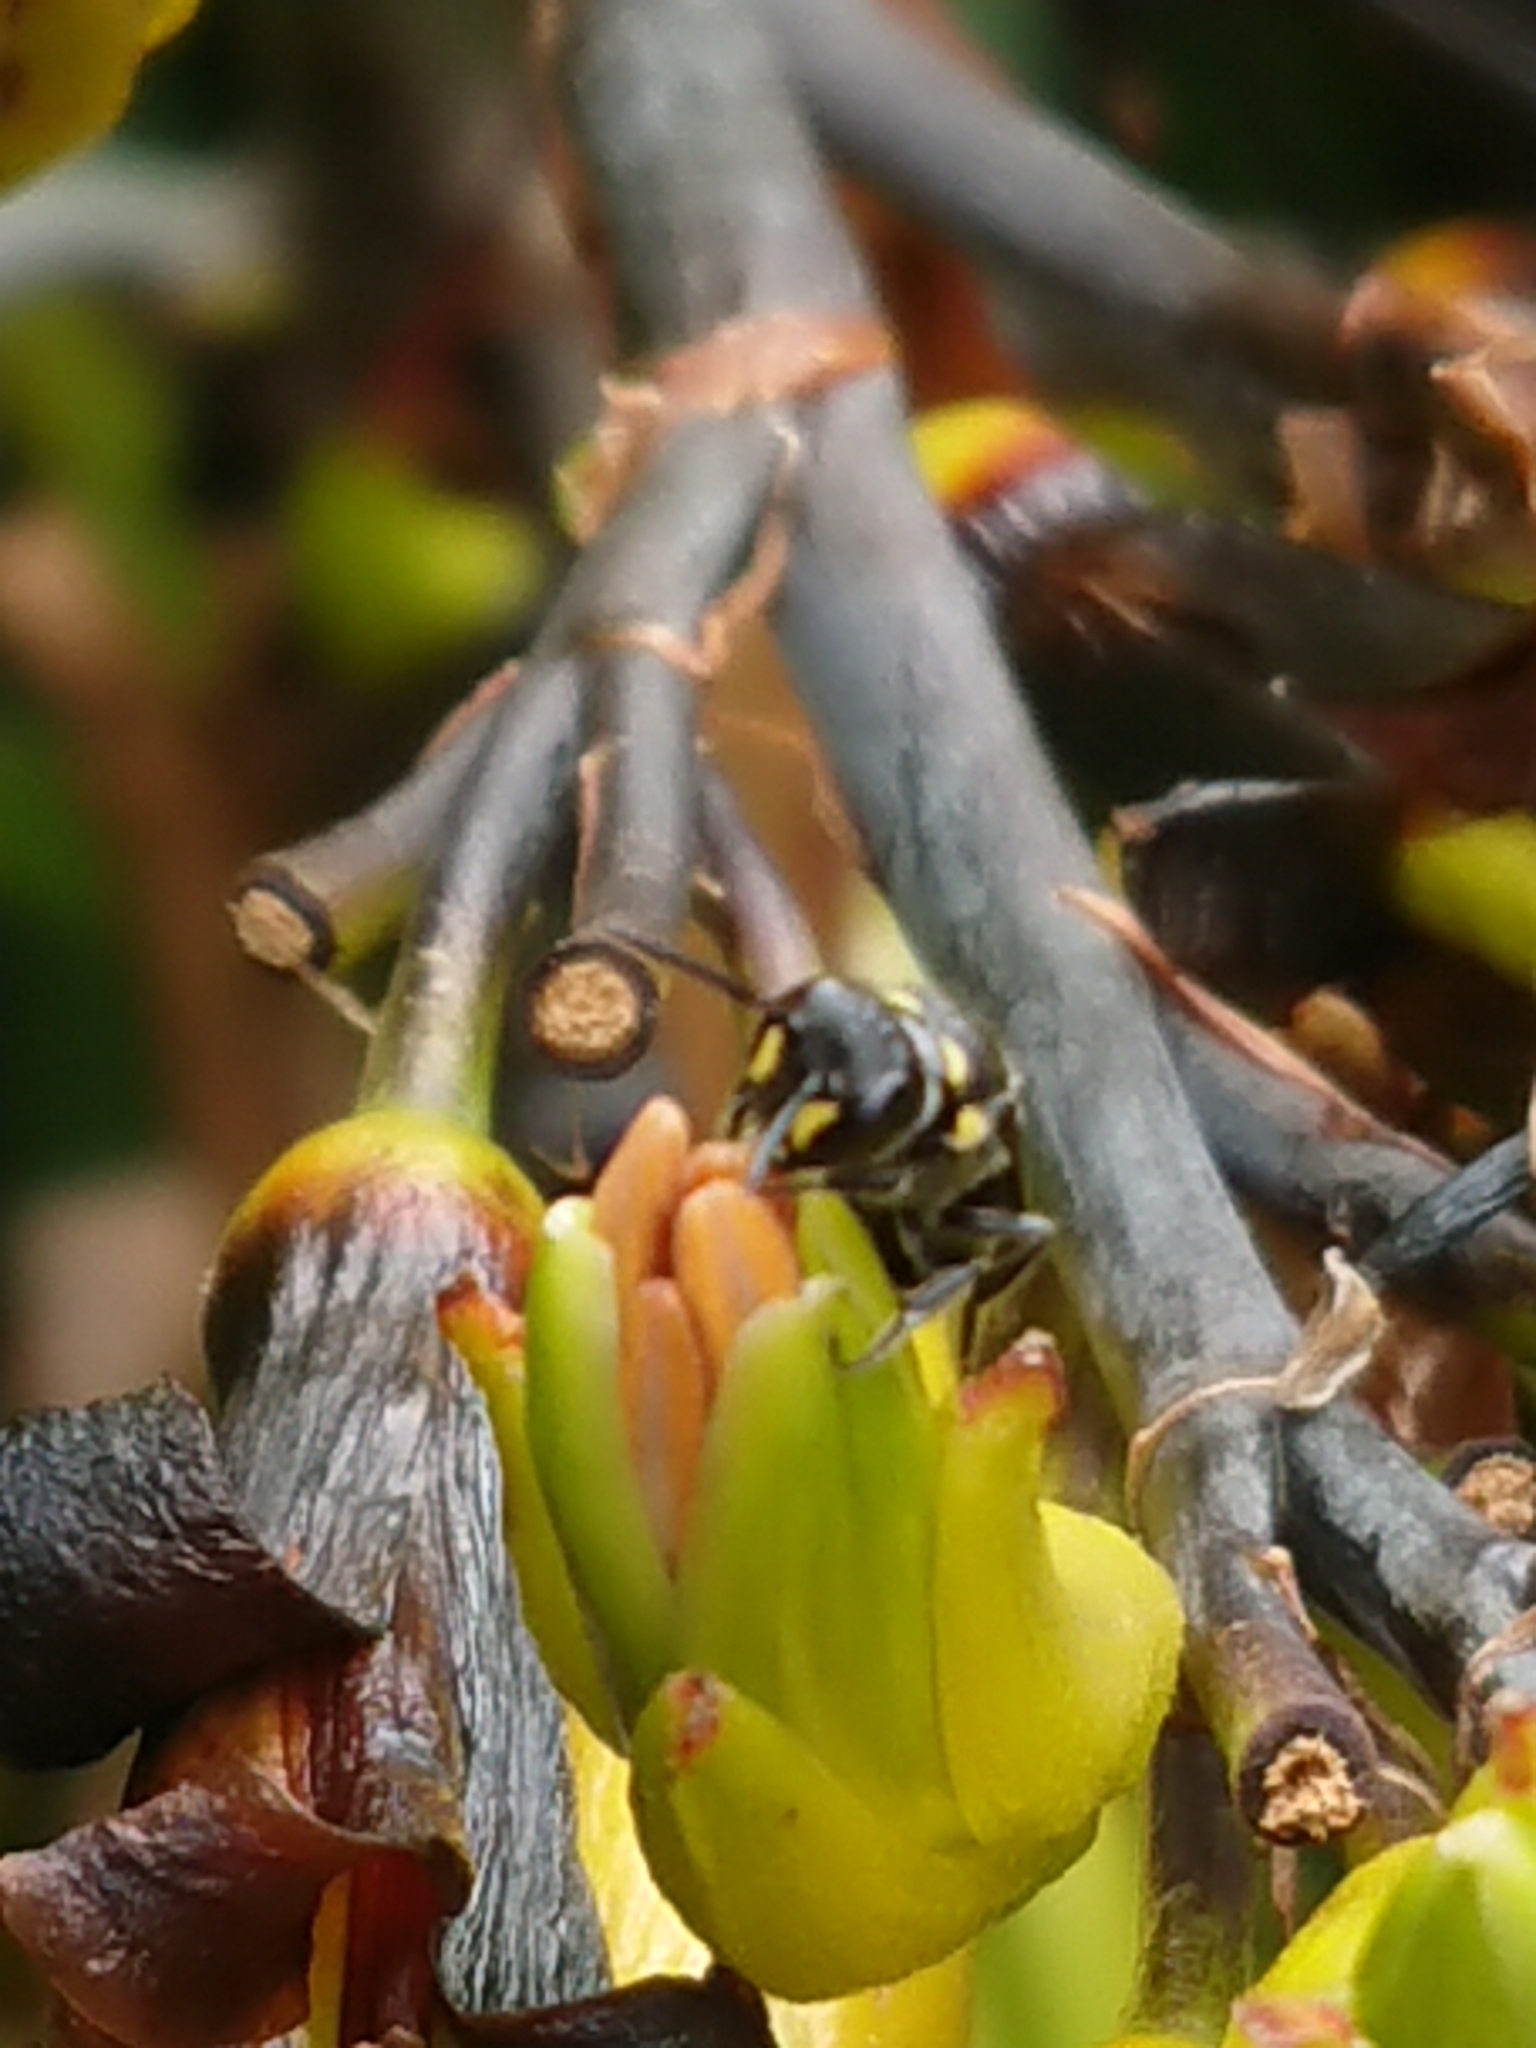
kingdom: Animalia
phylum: Arthropoda
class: Insecta
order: Hymenoptera
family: Colletidae
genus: Hylaeus
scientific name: Hylaeus relegatus
